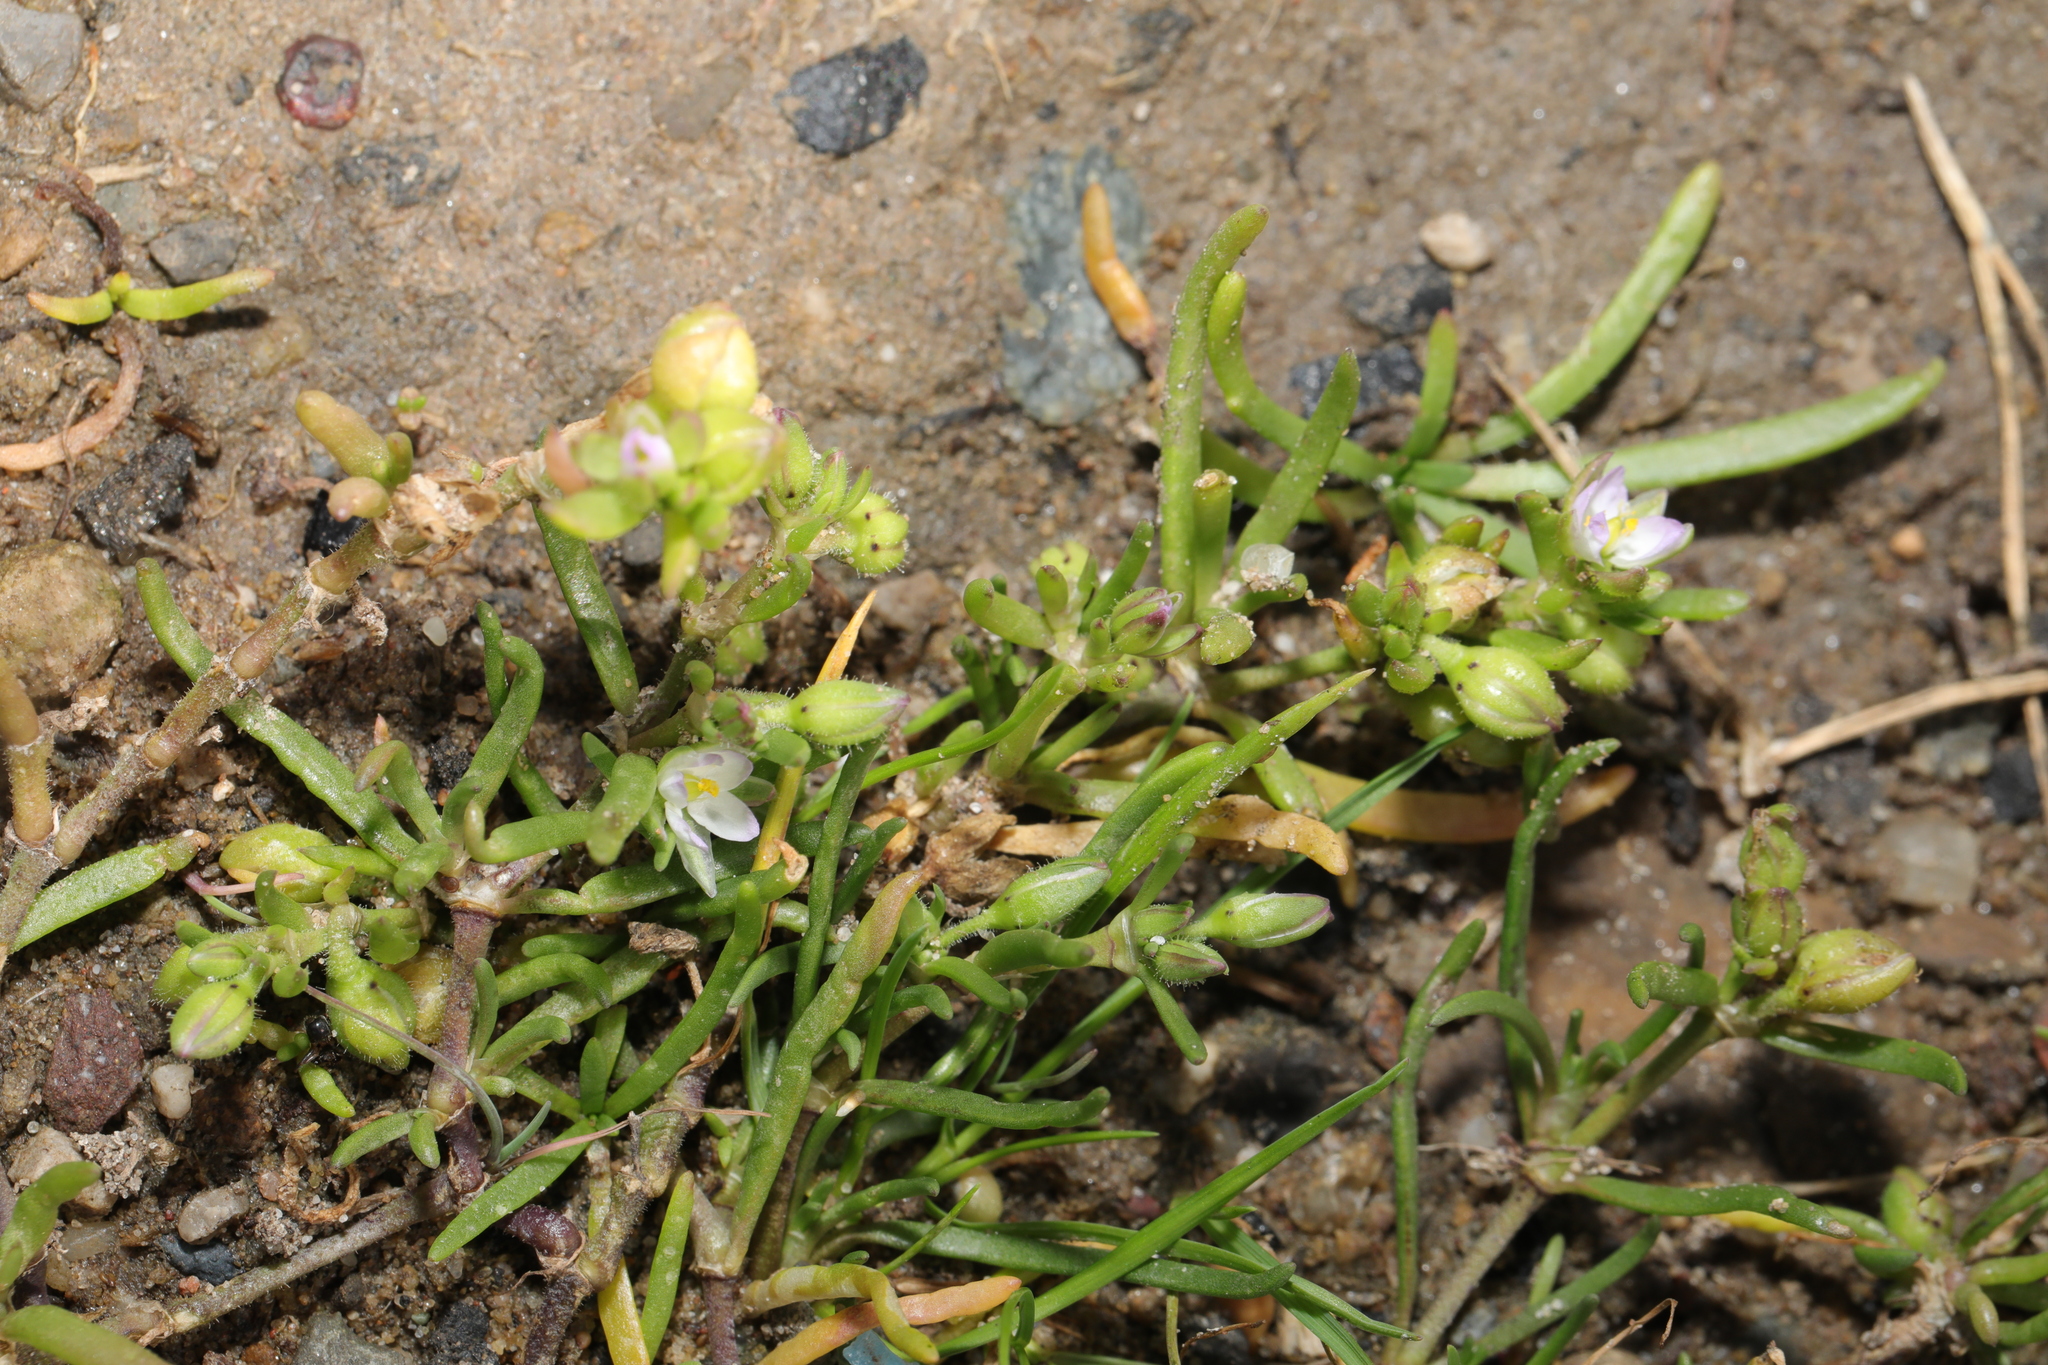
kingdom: Plantae
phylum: Tracheophyta
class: Magnoliopsida
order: Caryophyllales
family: Caryophyllaceae
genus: Spergularia
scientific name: Spergularia marina
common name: Lesser sea-spurrey
